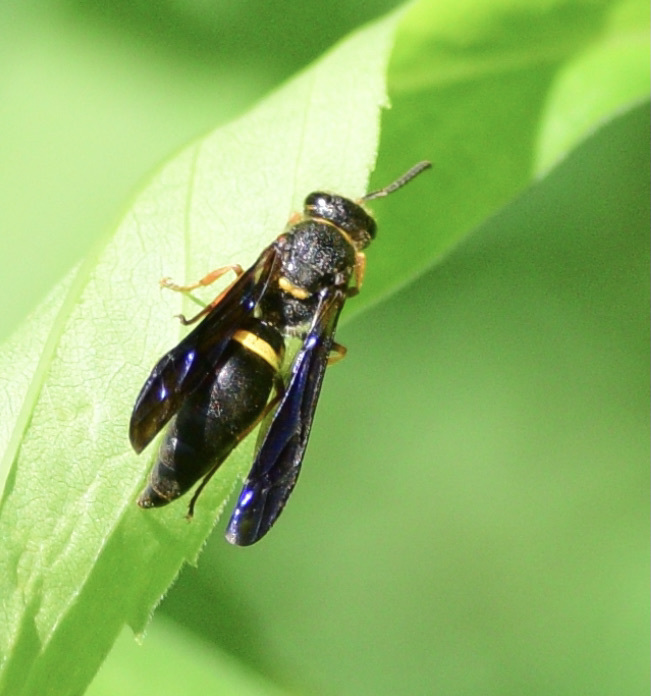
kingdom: Animalia
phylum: Arthropoda
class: Insecta
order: Hymenoptera
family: Vespidae
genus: Ancistrocerus
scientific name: Ancistrocerus unifasciatus
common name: One-banded mason wasp
